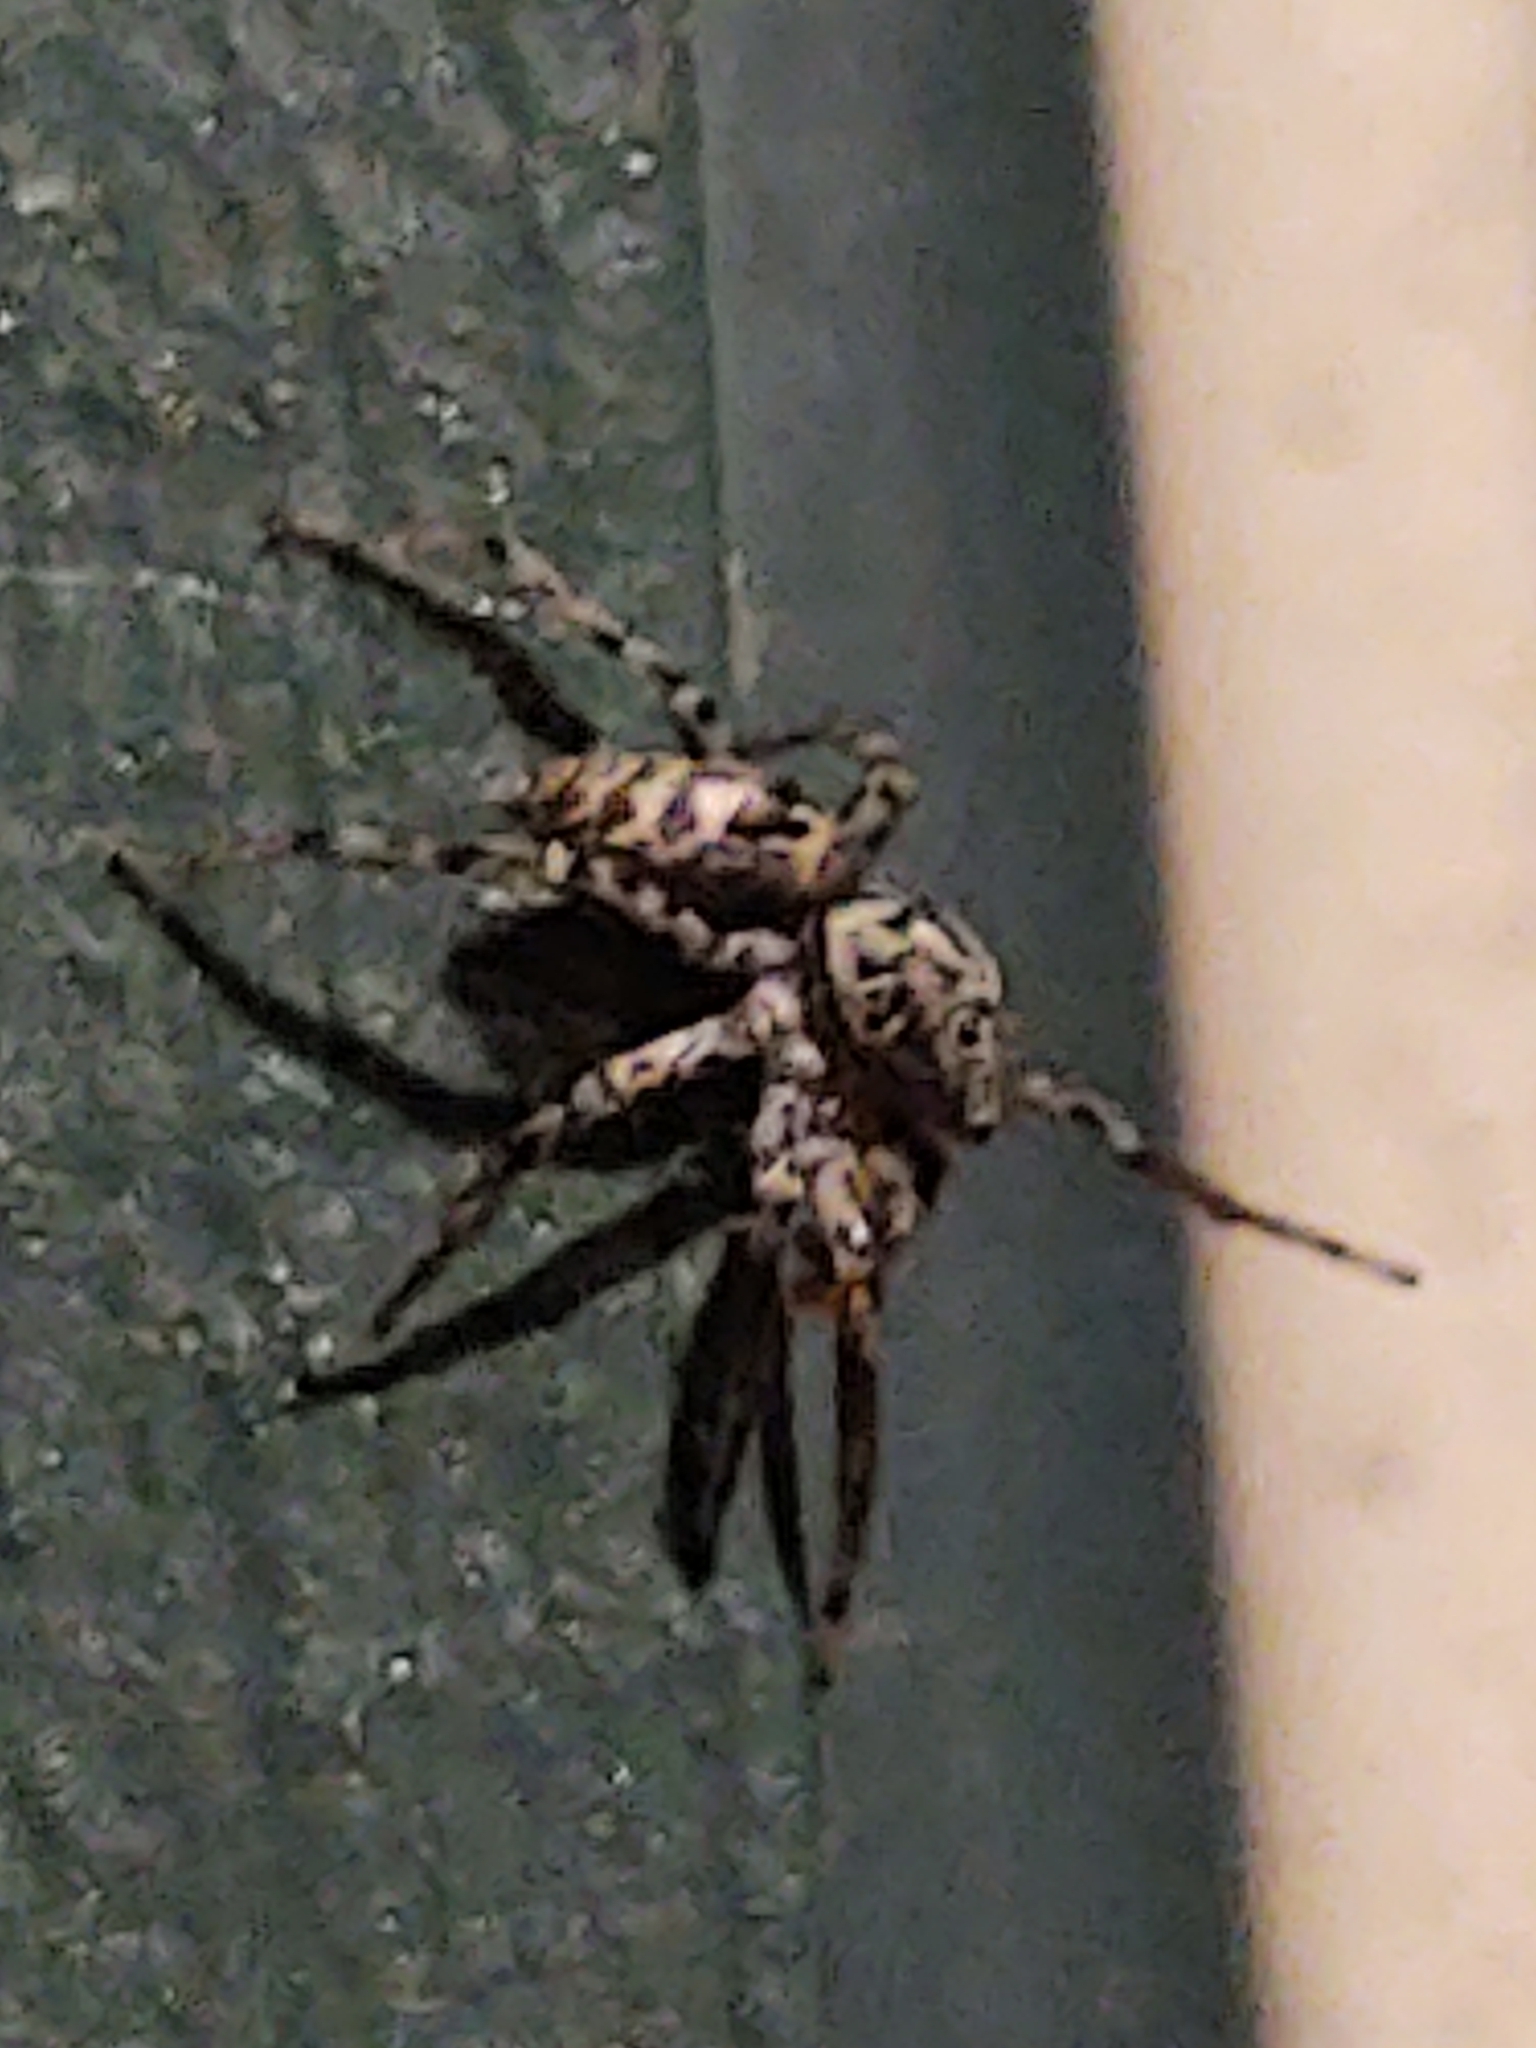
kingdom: Animalia
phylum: Arthropoda
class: Arachnida
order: Araneae
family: Salticidae
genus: Maevia
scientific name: Maevia inclemens
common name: Dimorphic jumper
